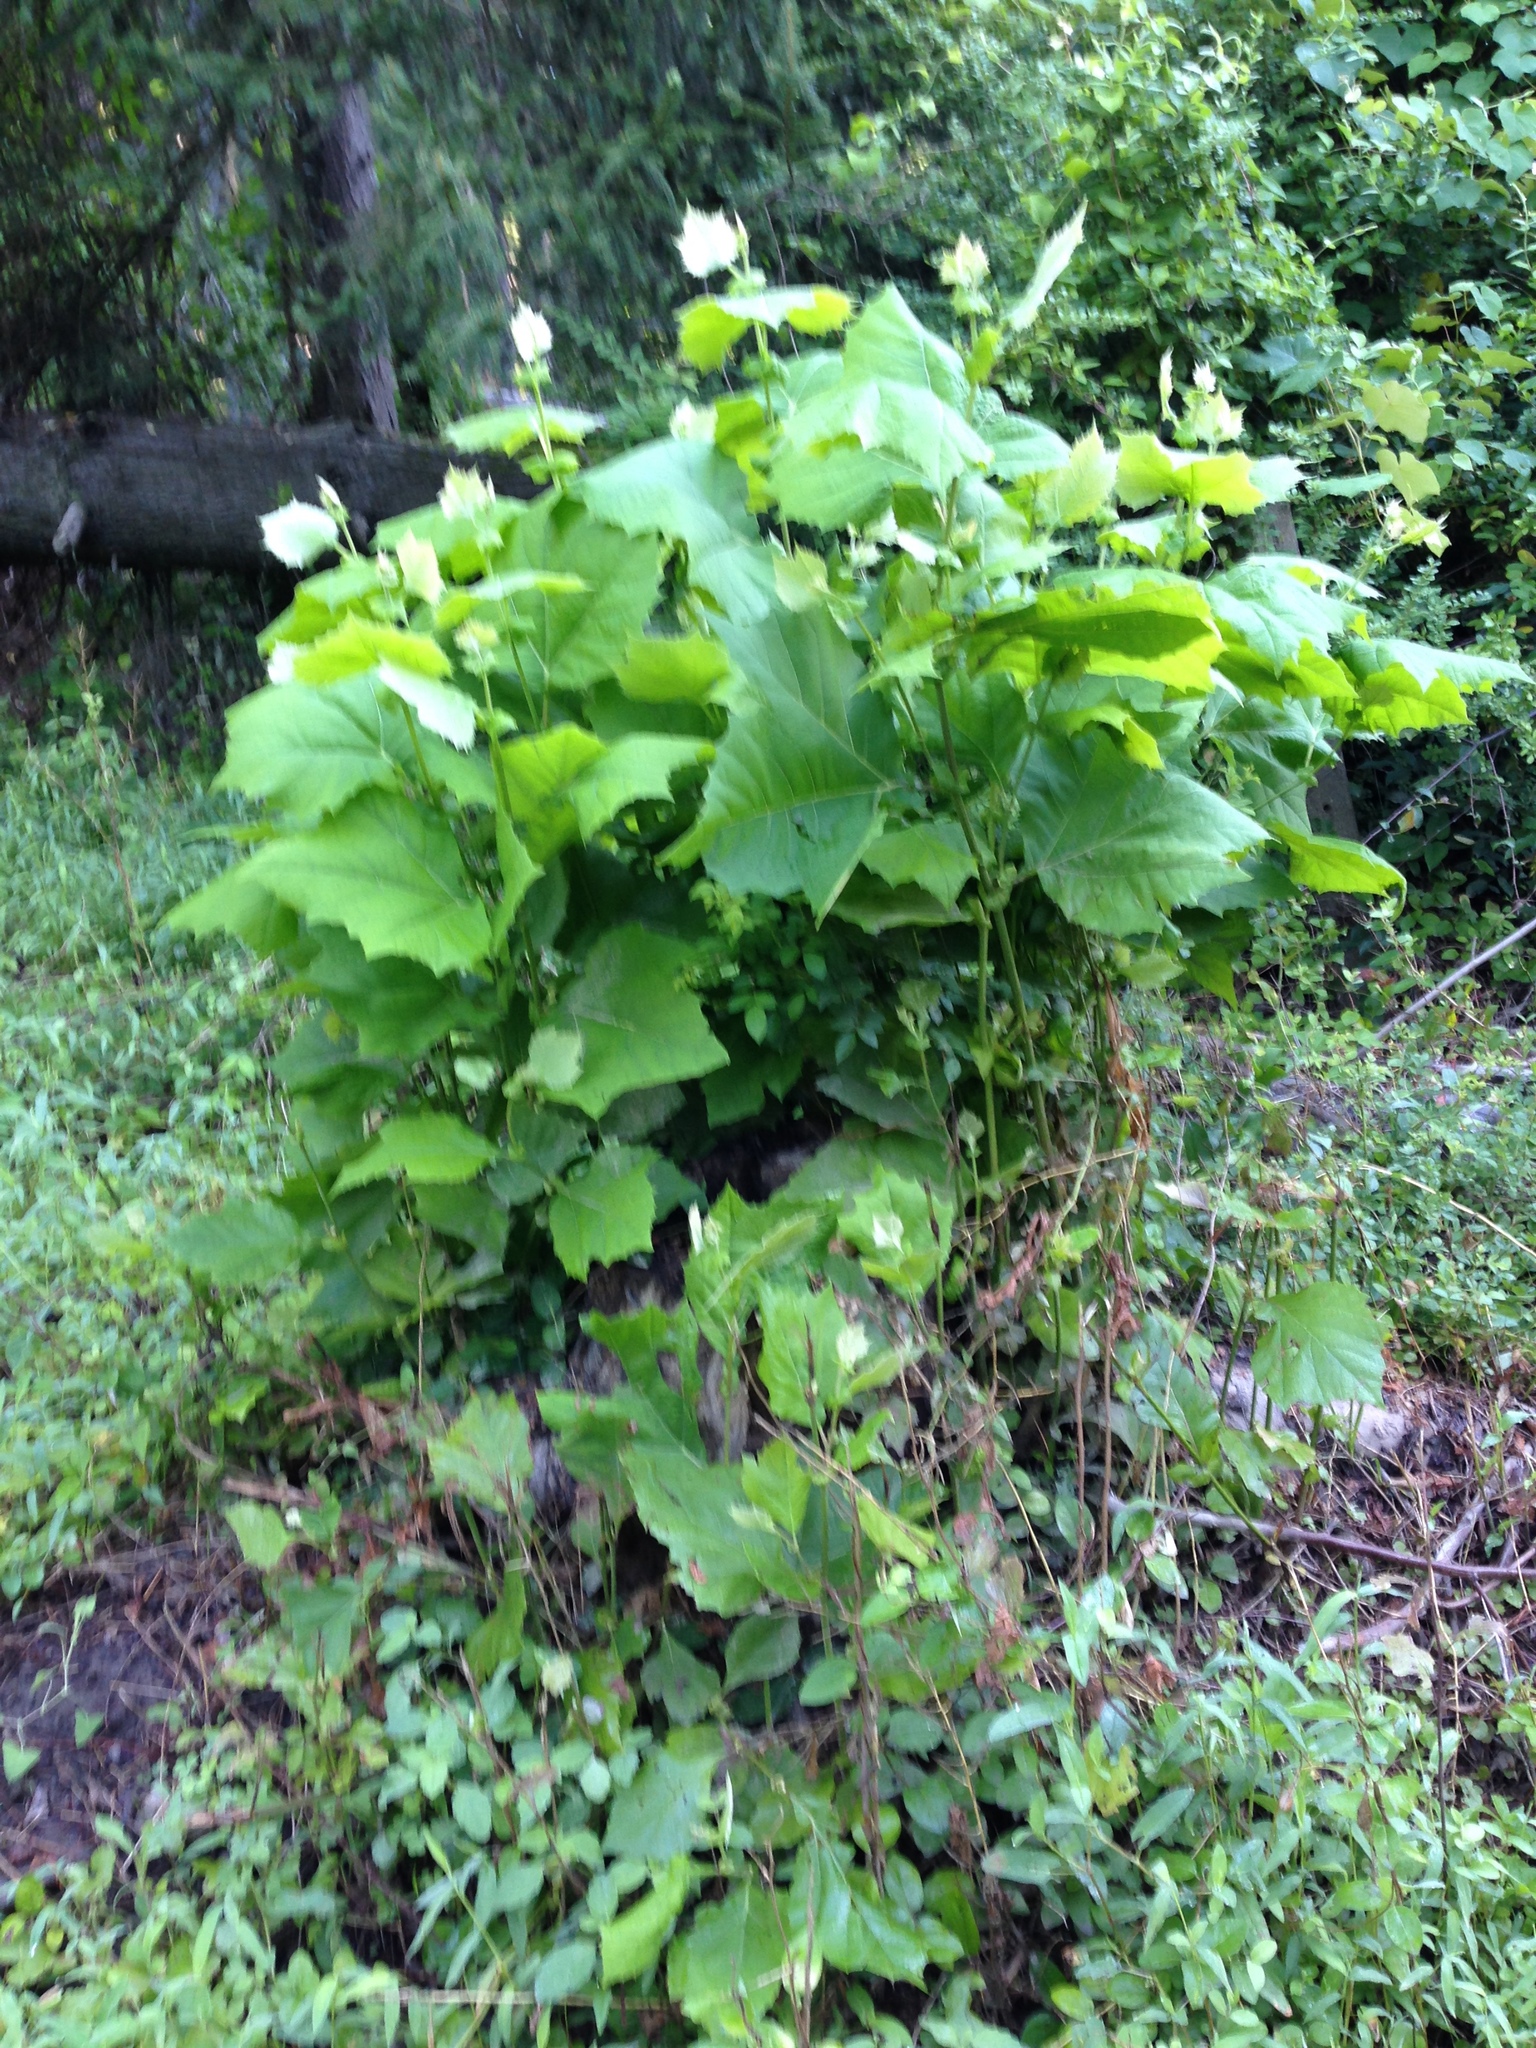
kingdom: Plantae
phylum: Tracheophyta
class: Magnoliopsida
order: Proteales
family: Platanaceae
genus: Platanus
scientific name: Platanus occidentalis
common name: American sycamore
